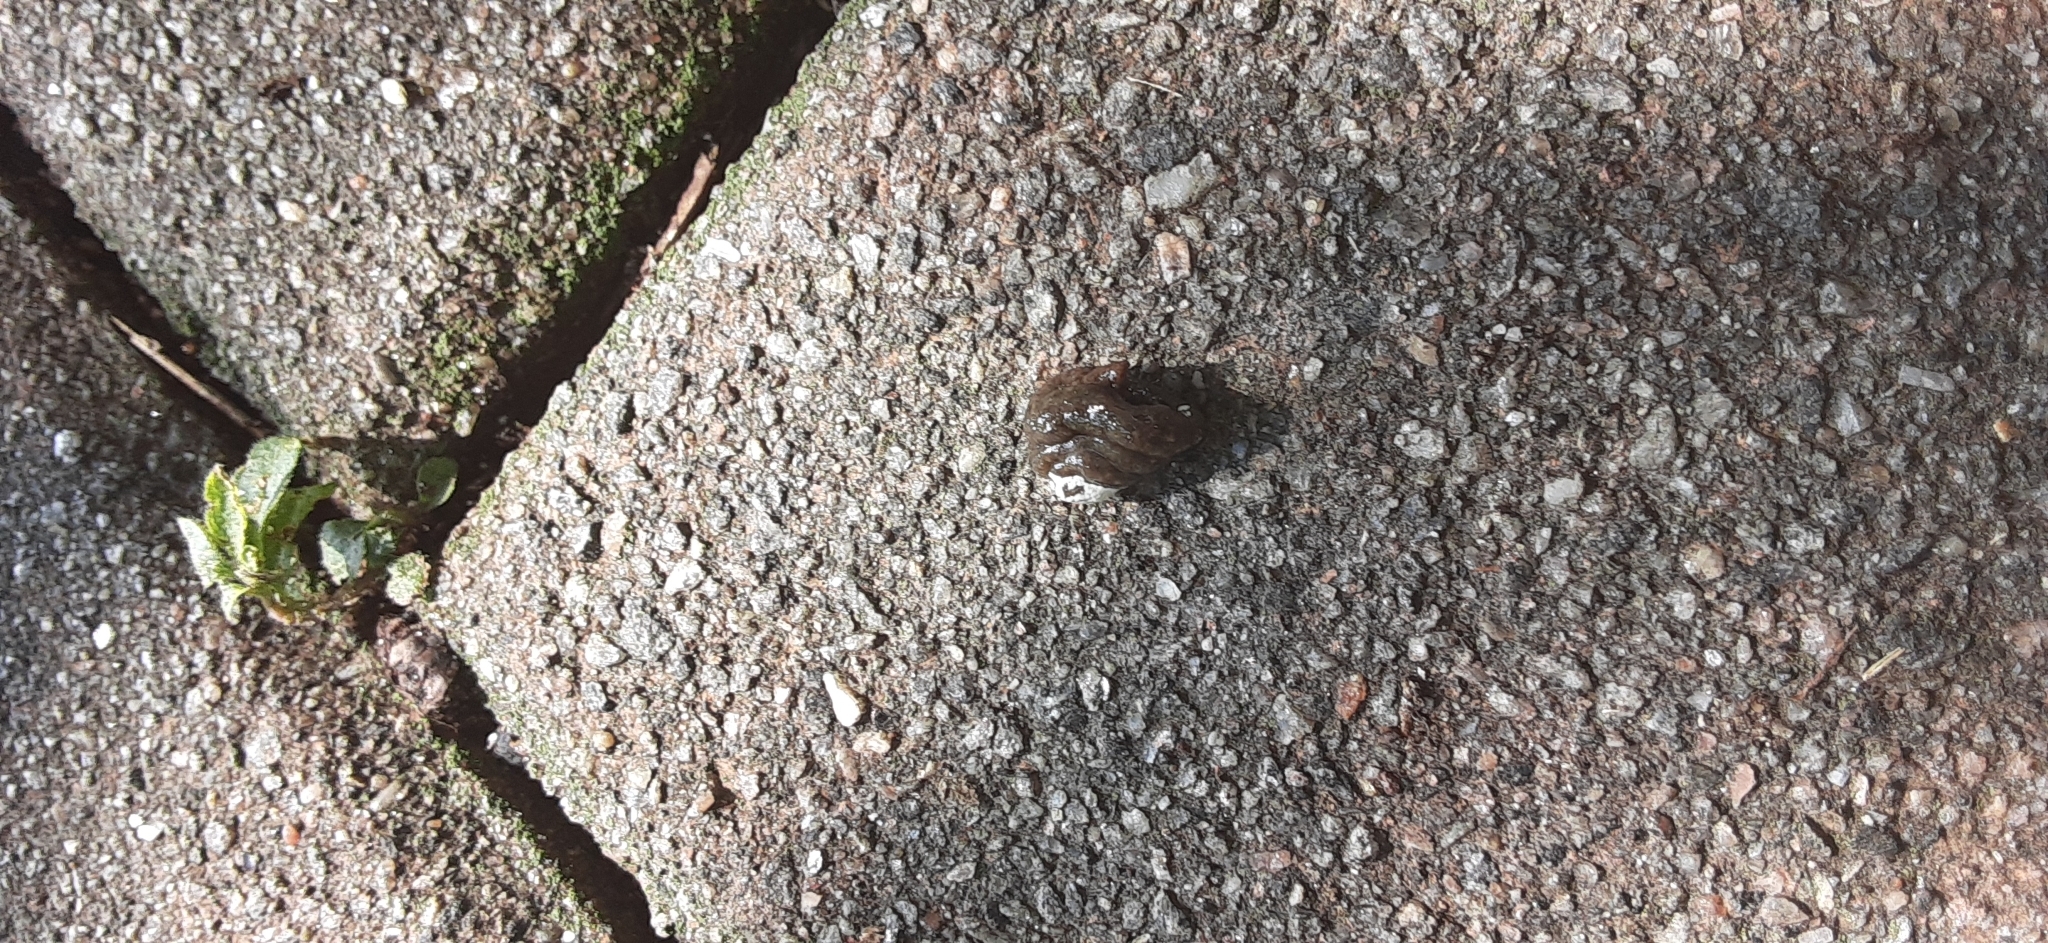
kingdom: Animalia
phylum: Chordata
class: Aves
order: Columbiformes
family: Columbidae
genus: Zenaida
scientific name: Zenaida macroura
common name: Mourning dove
